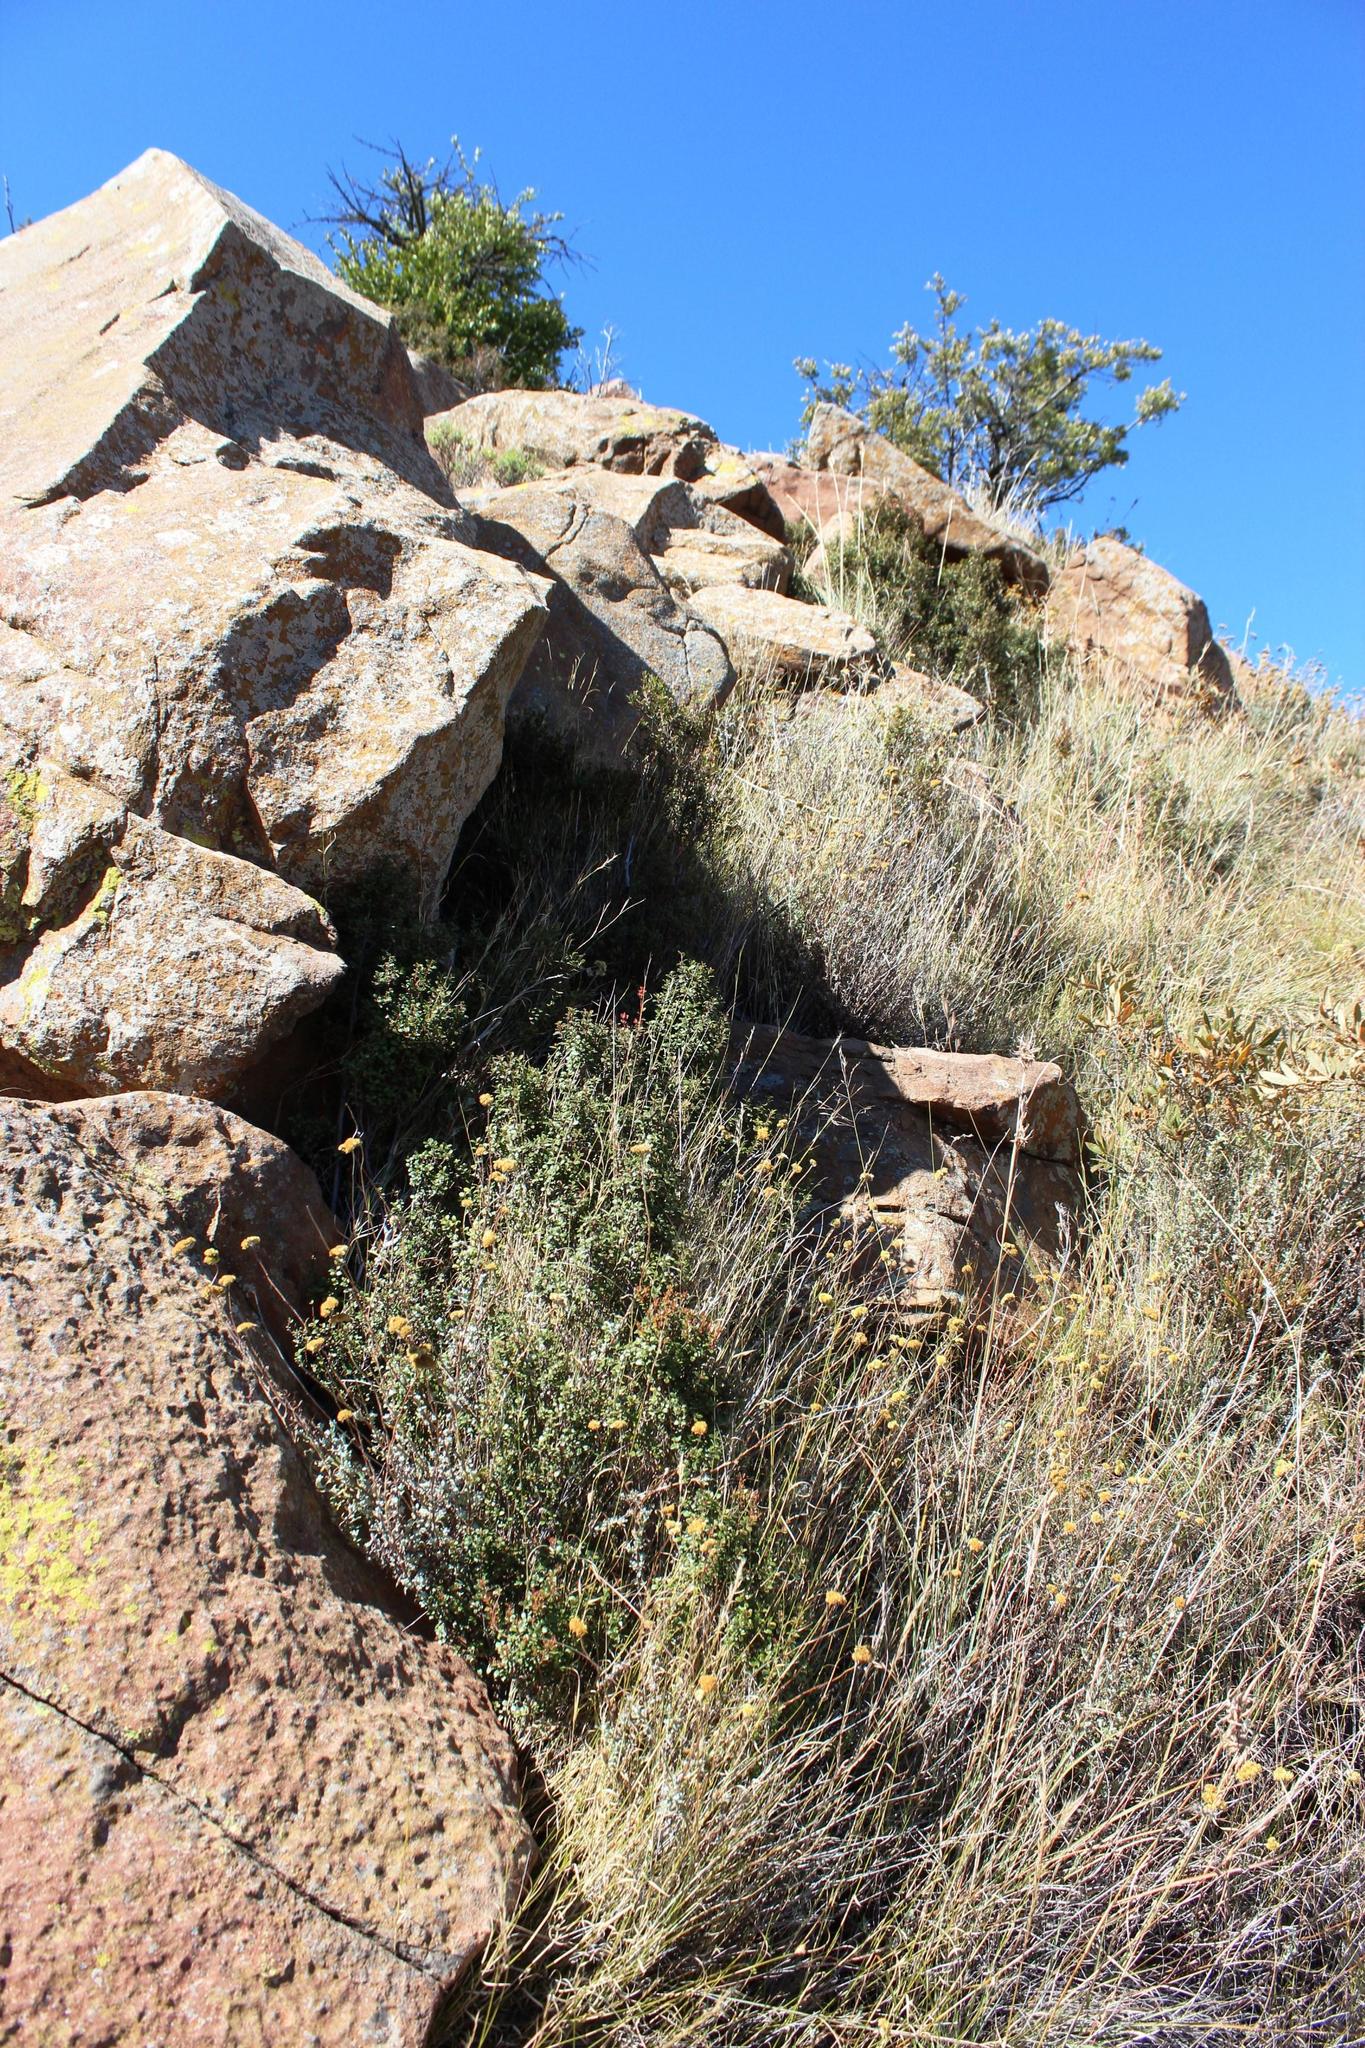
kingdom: Plantae
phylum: Tracheophyta
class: Magnoliopsida
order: Ericales
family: Primulaceae
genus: Myrsine
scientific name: Myrsine africana
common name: African-boxwood
